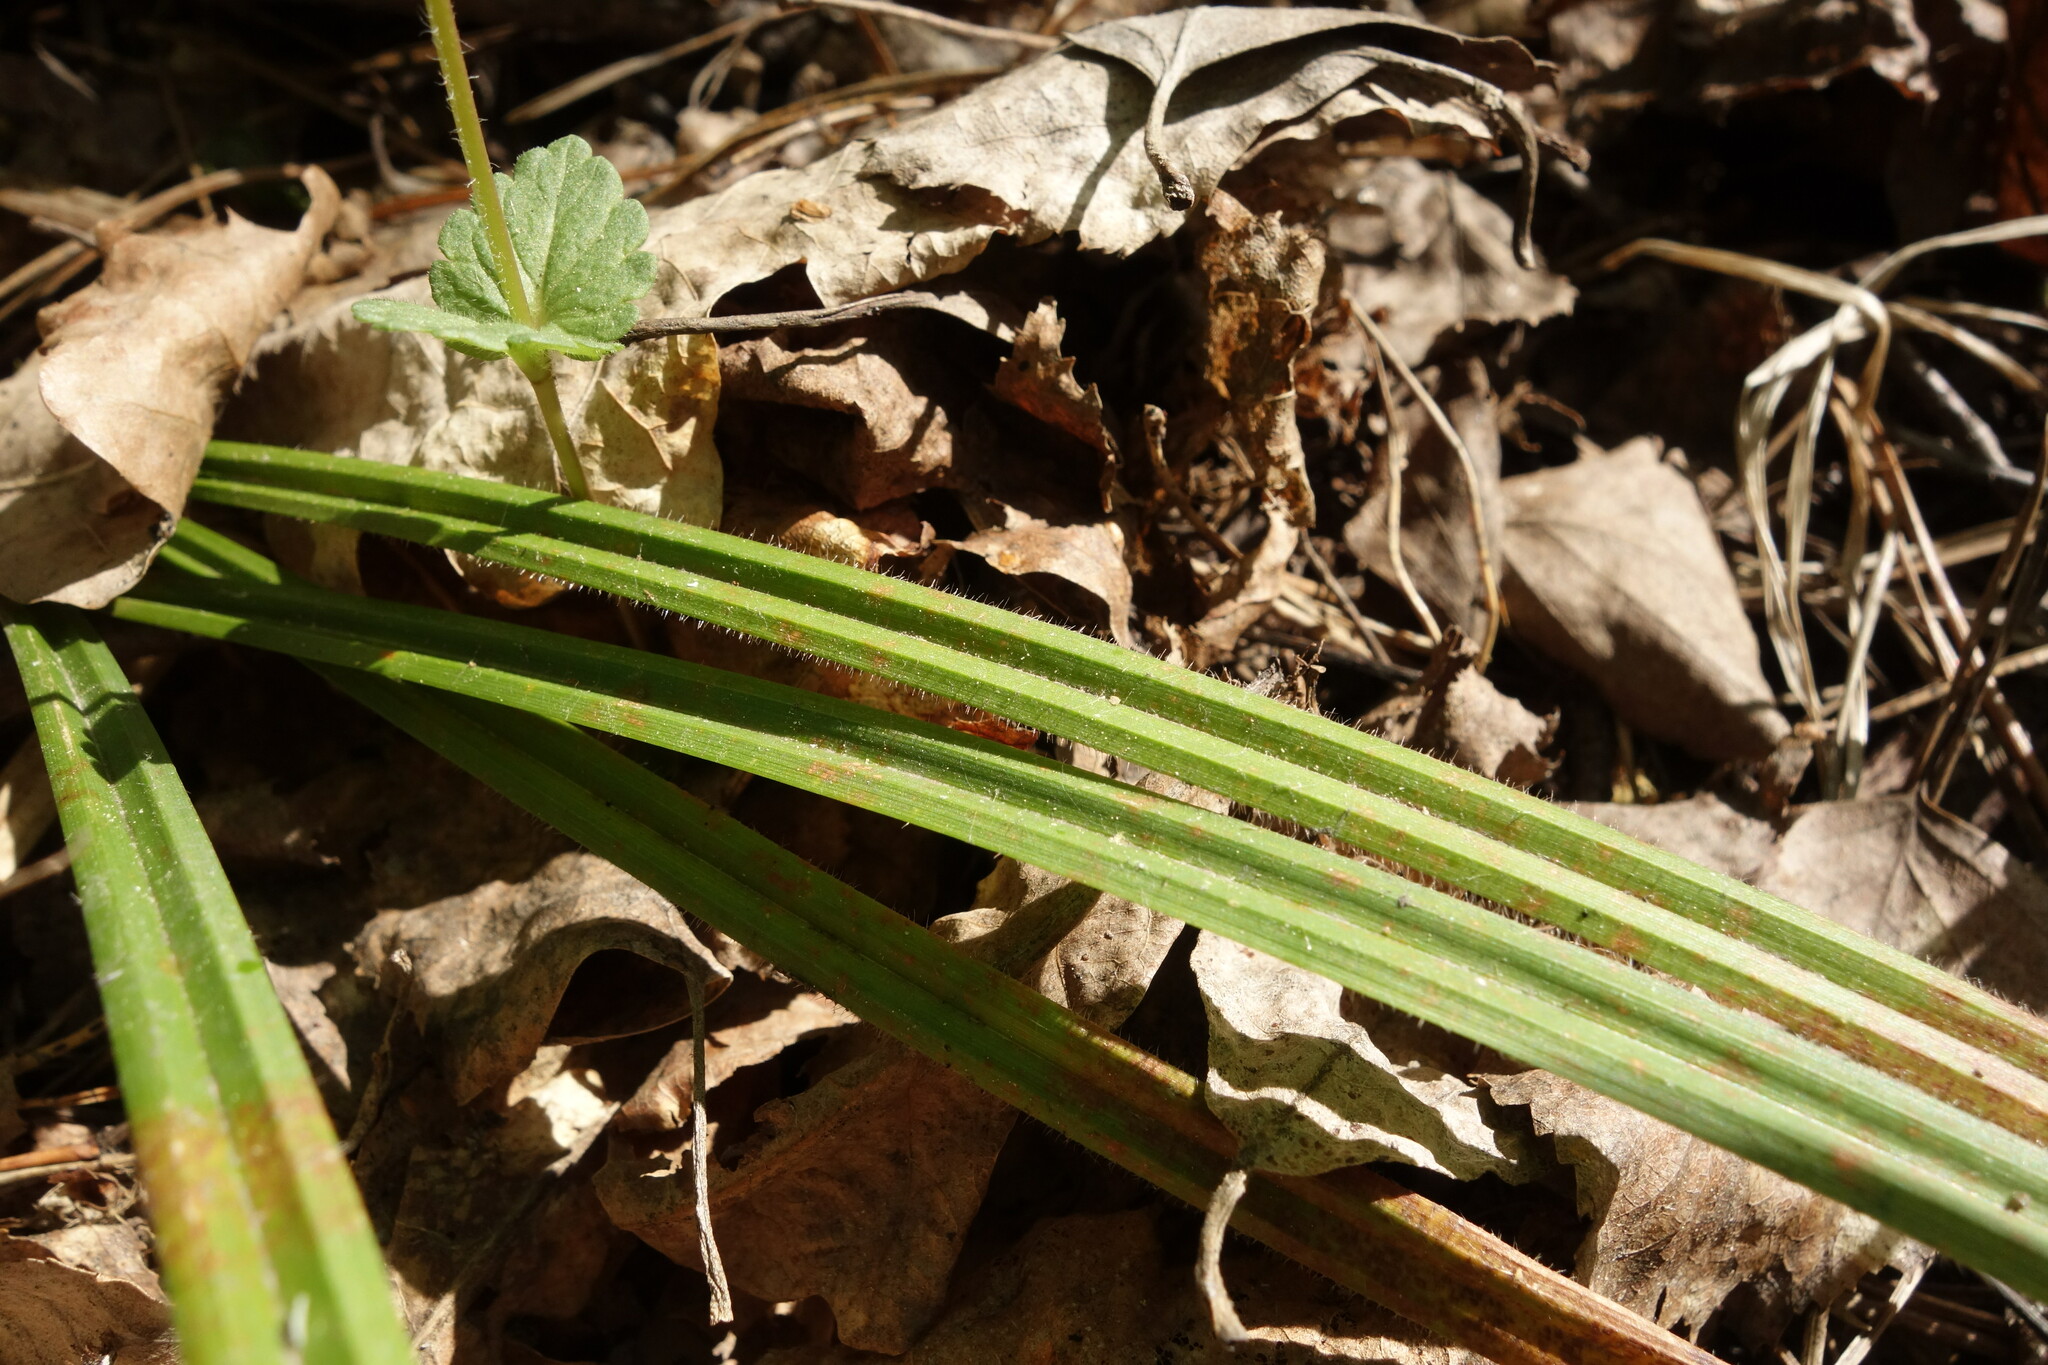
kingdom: Plantae
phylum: Tracheophyta
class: Liliopsida
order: Poales
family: Cyperaceae
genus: Carex
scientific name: Carex pilosa
